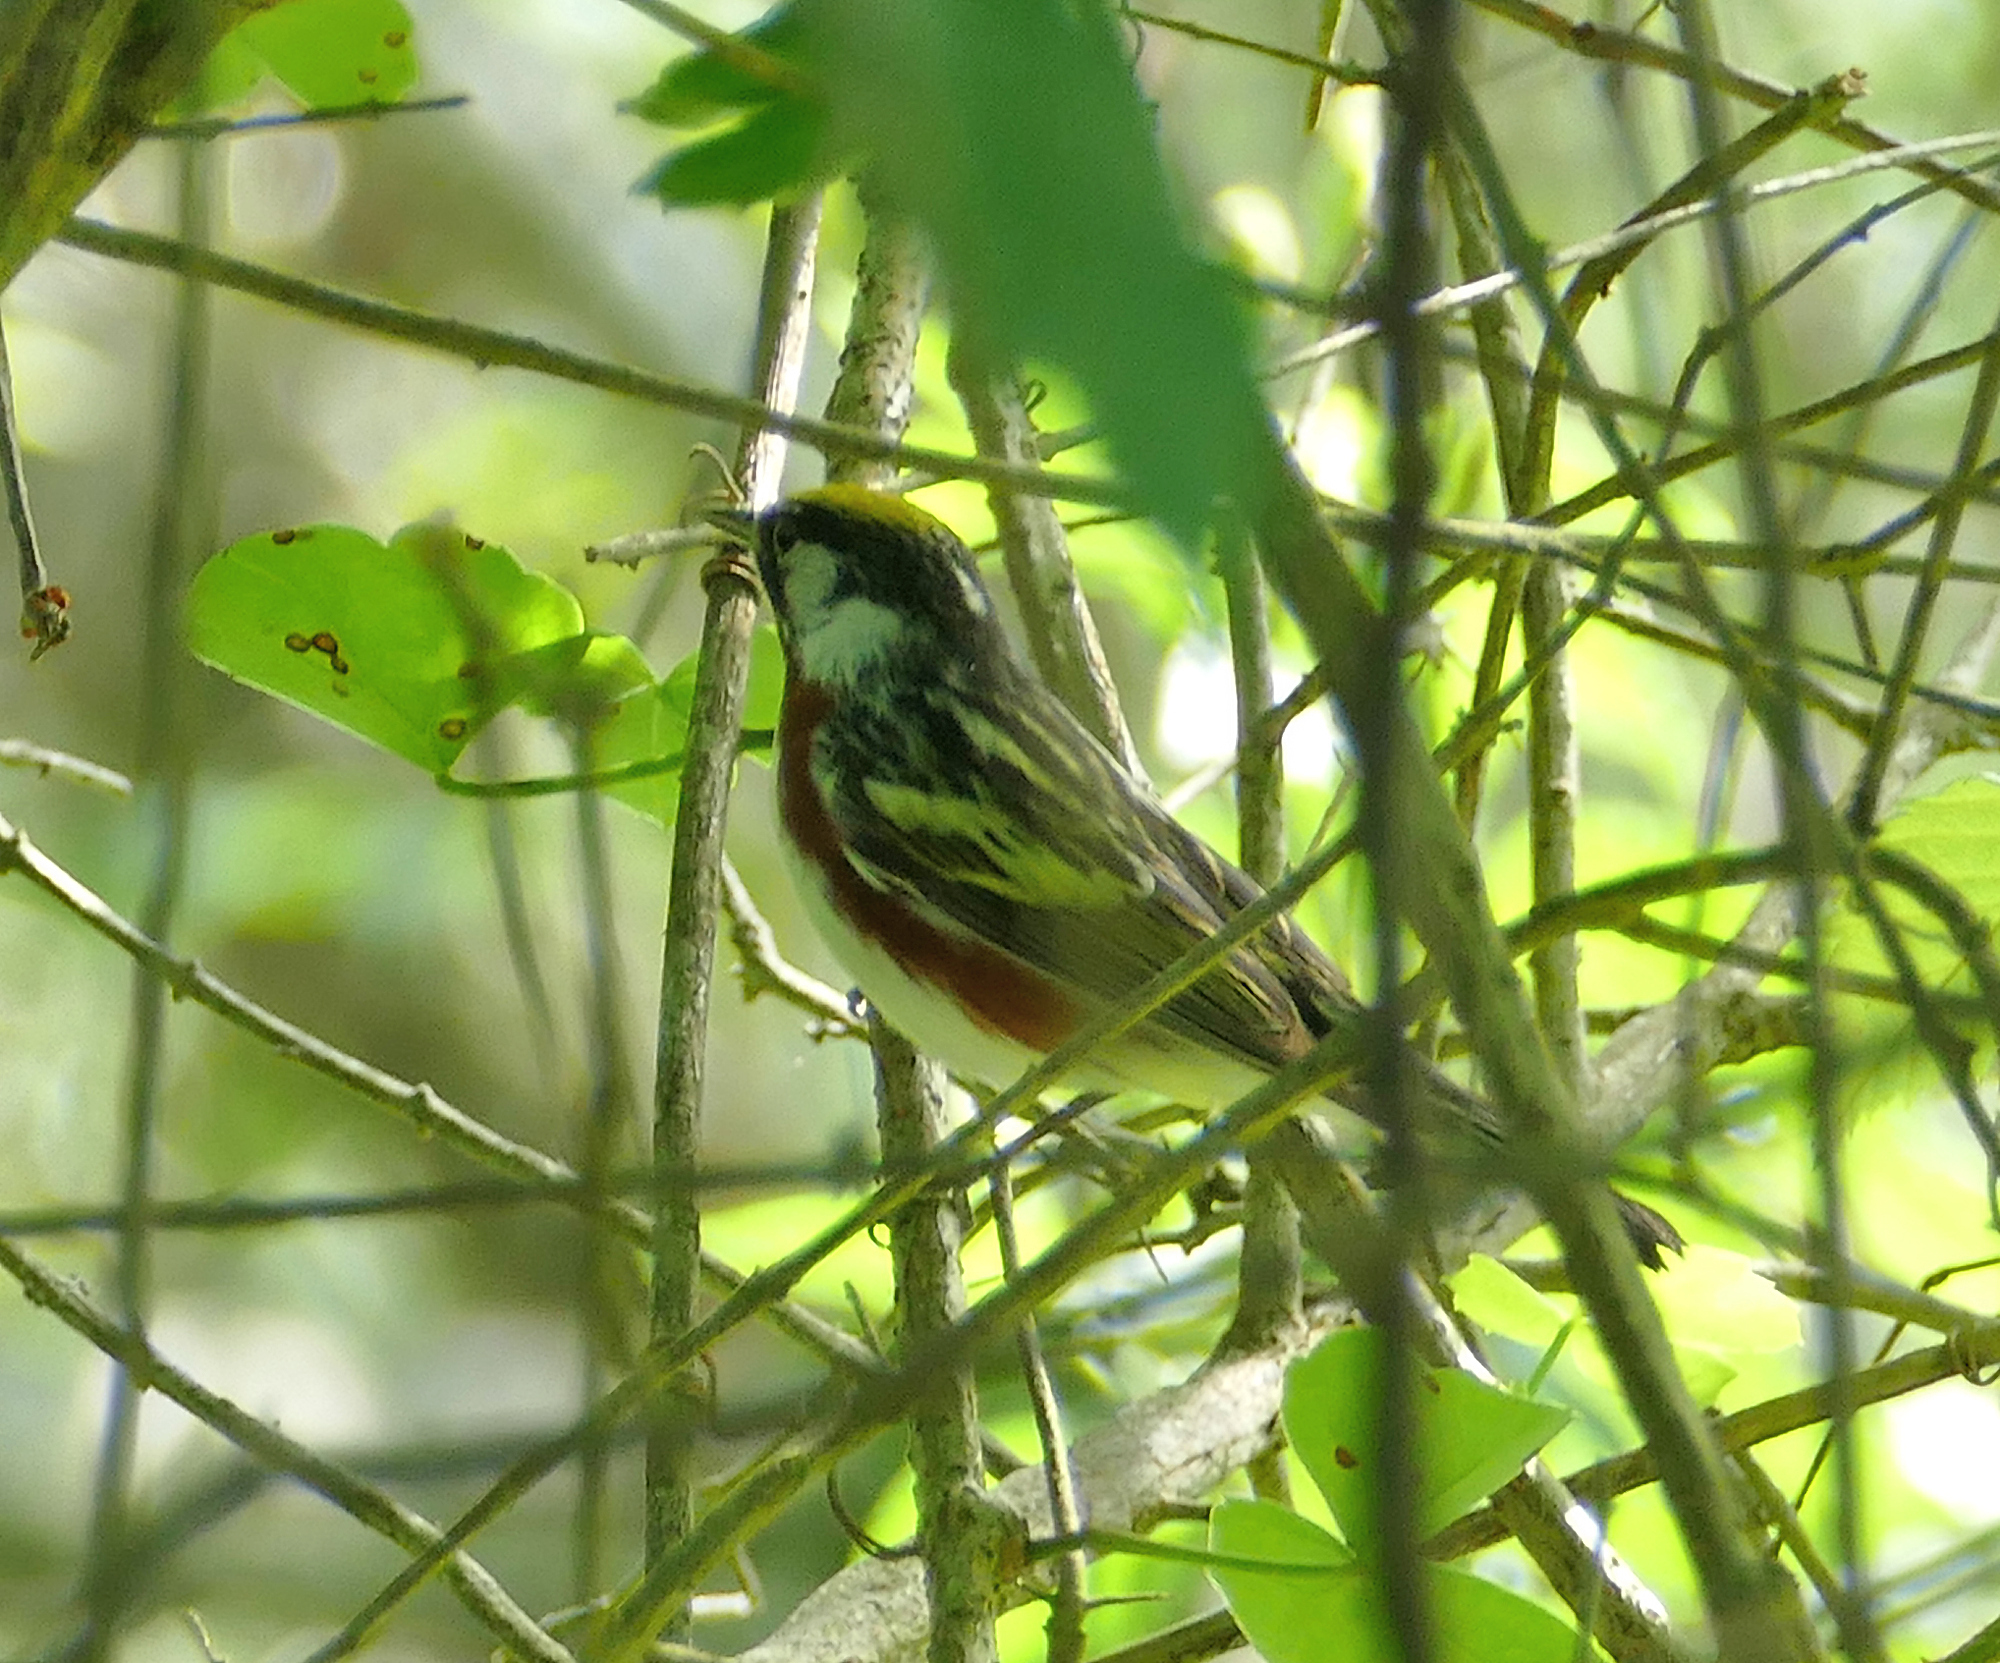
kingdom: Animalia
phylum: Chordata
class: Aves
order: Passeriformes
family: Parulidae
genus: Setophaga
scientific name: Setophaga pensylvanica
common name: Chestnut-sided warbler
